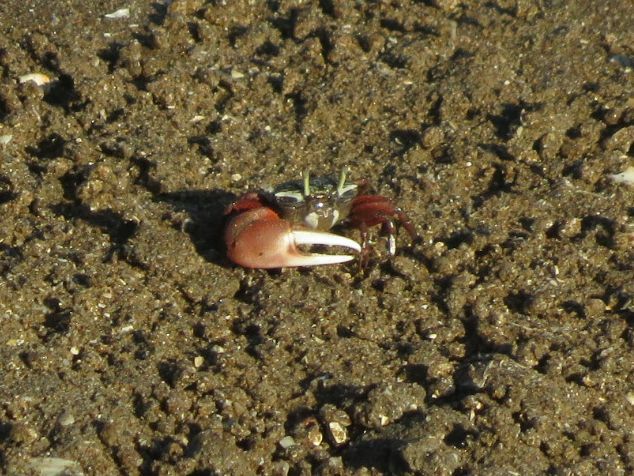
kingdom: Animalia
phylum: Arthropoda
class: Malacostraca
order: Decapoda
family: Ocypodidae
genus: Leptuca
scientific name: Leptuca uruguayensis
